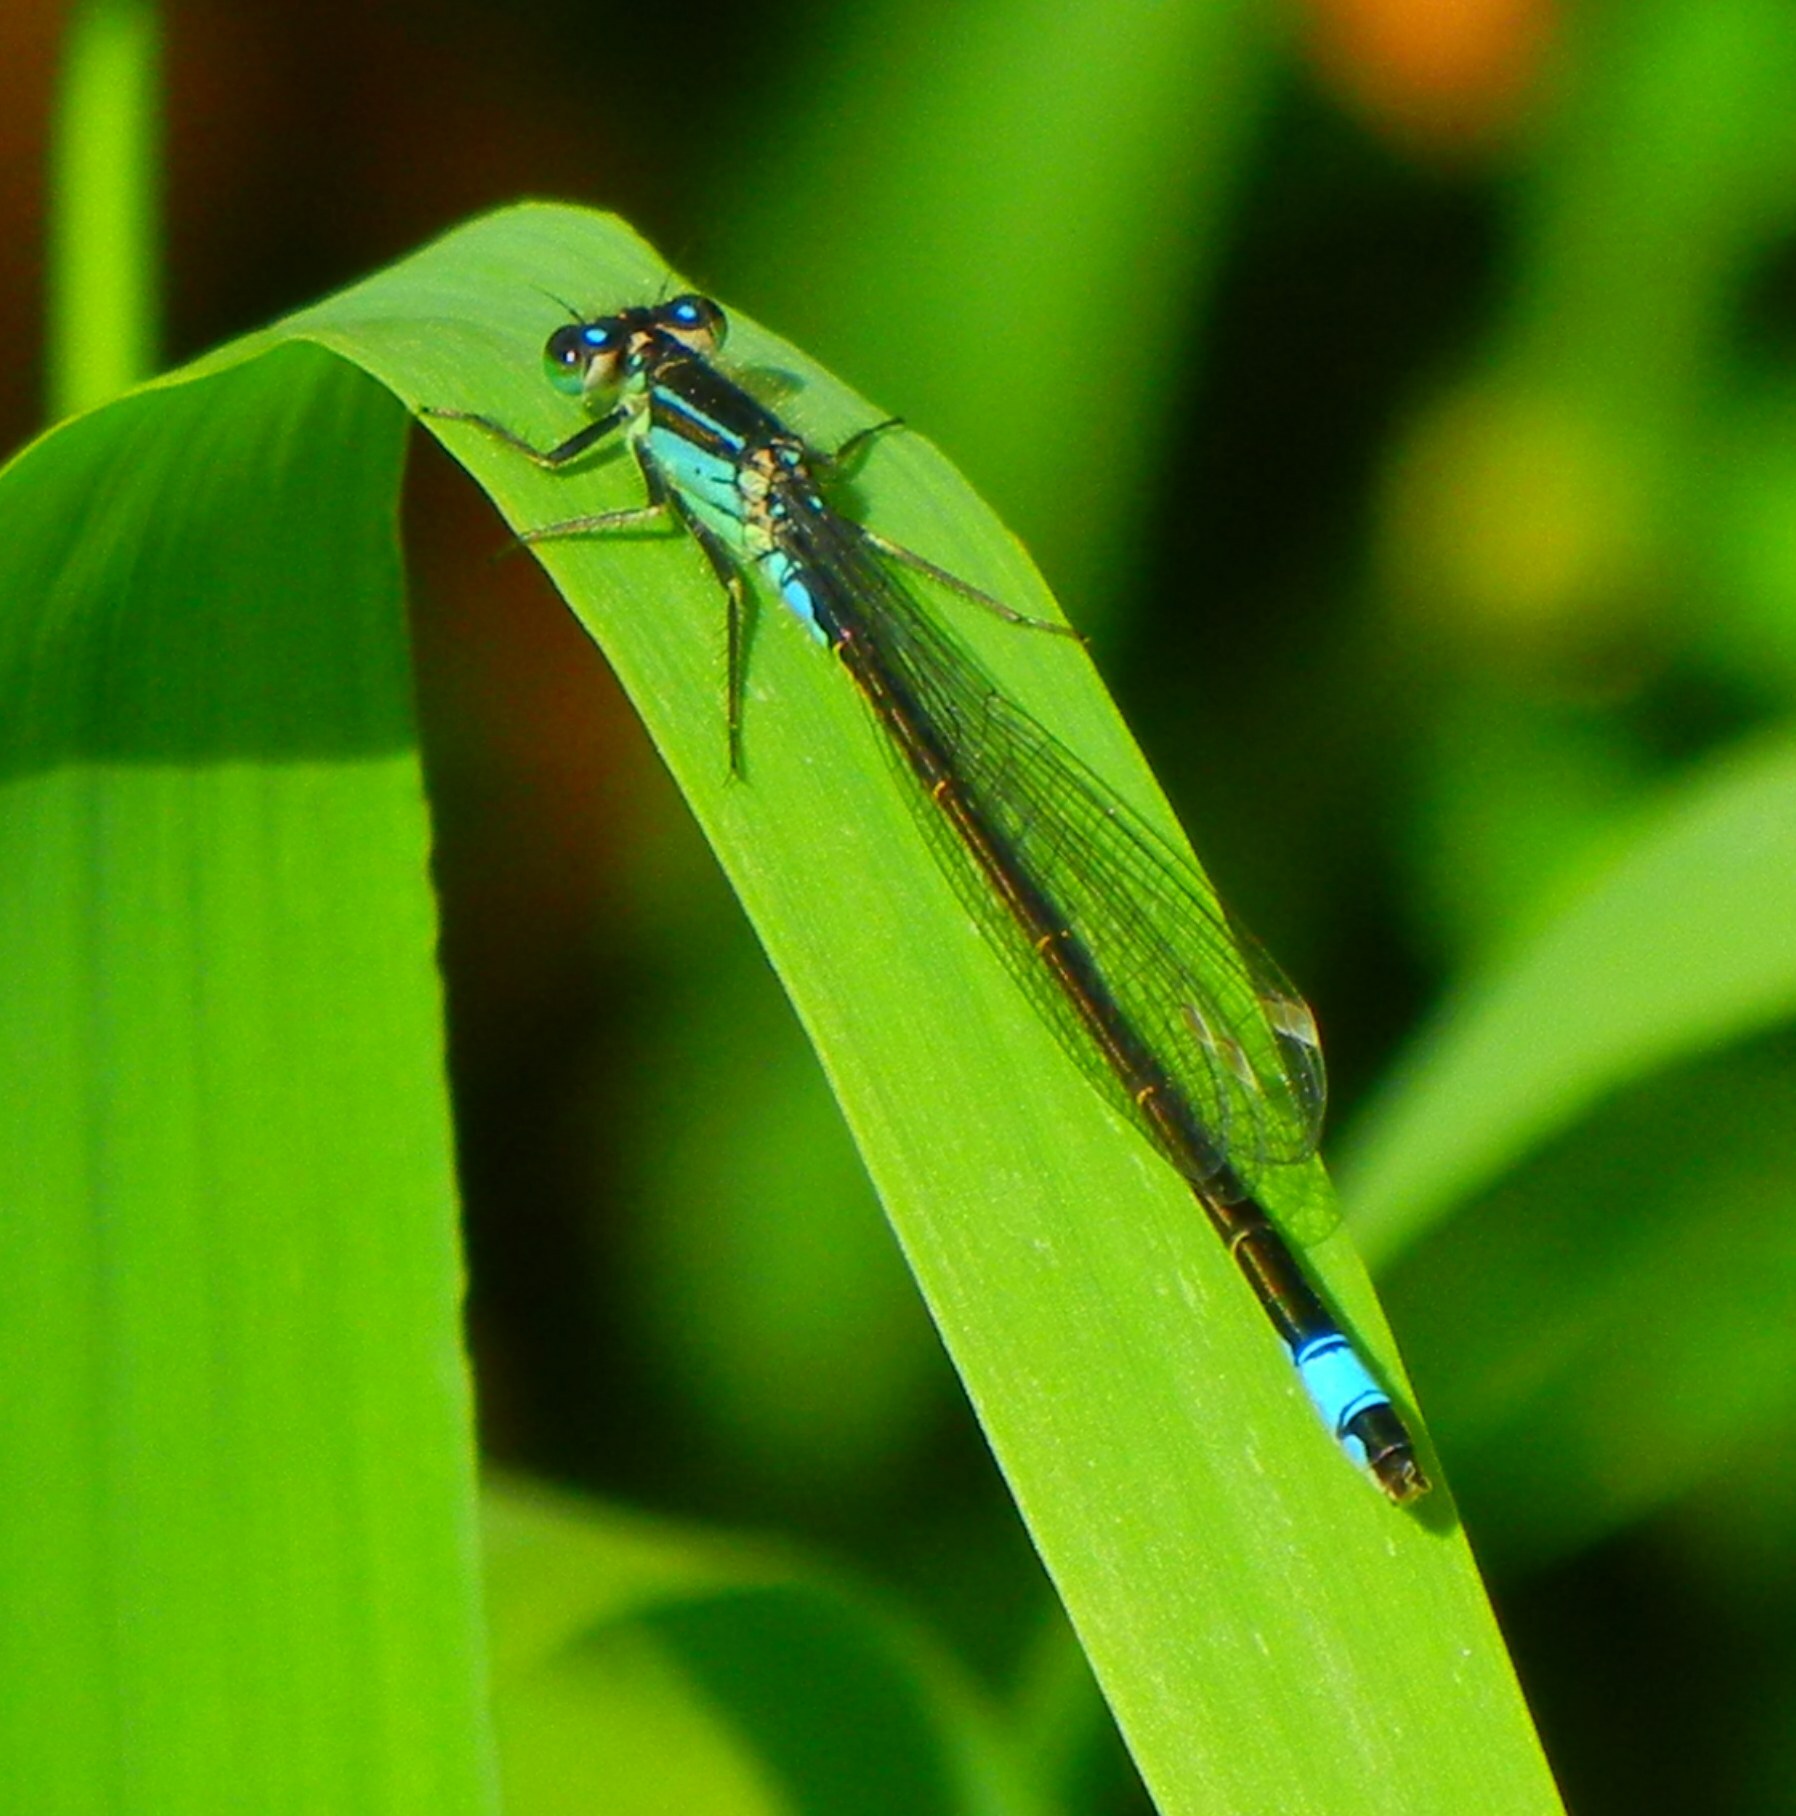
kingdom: Animalia
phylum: Arthropoda
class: Insecta
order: Odonata
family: Coenagrionidae
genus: Ischnura
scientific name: Ischnura elegans
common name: Blue-tailed damselfly
